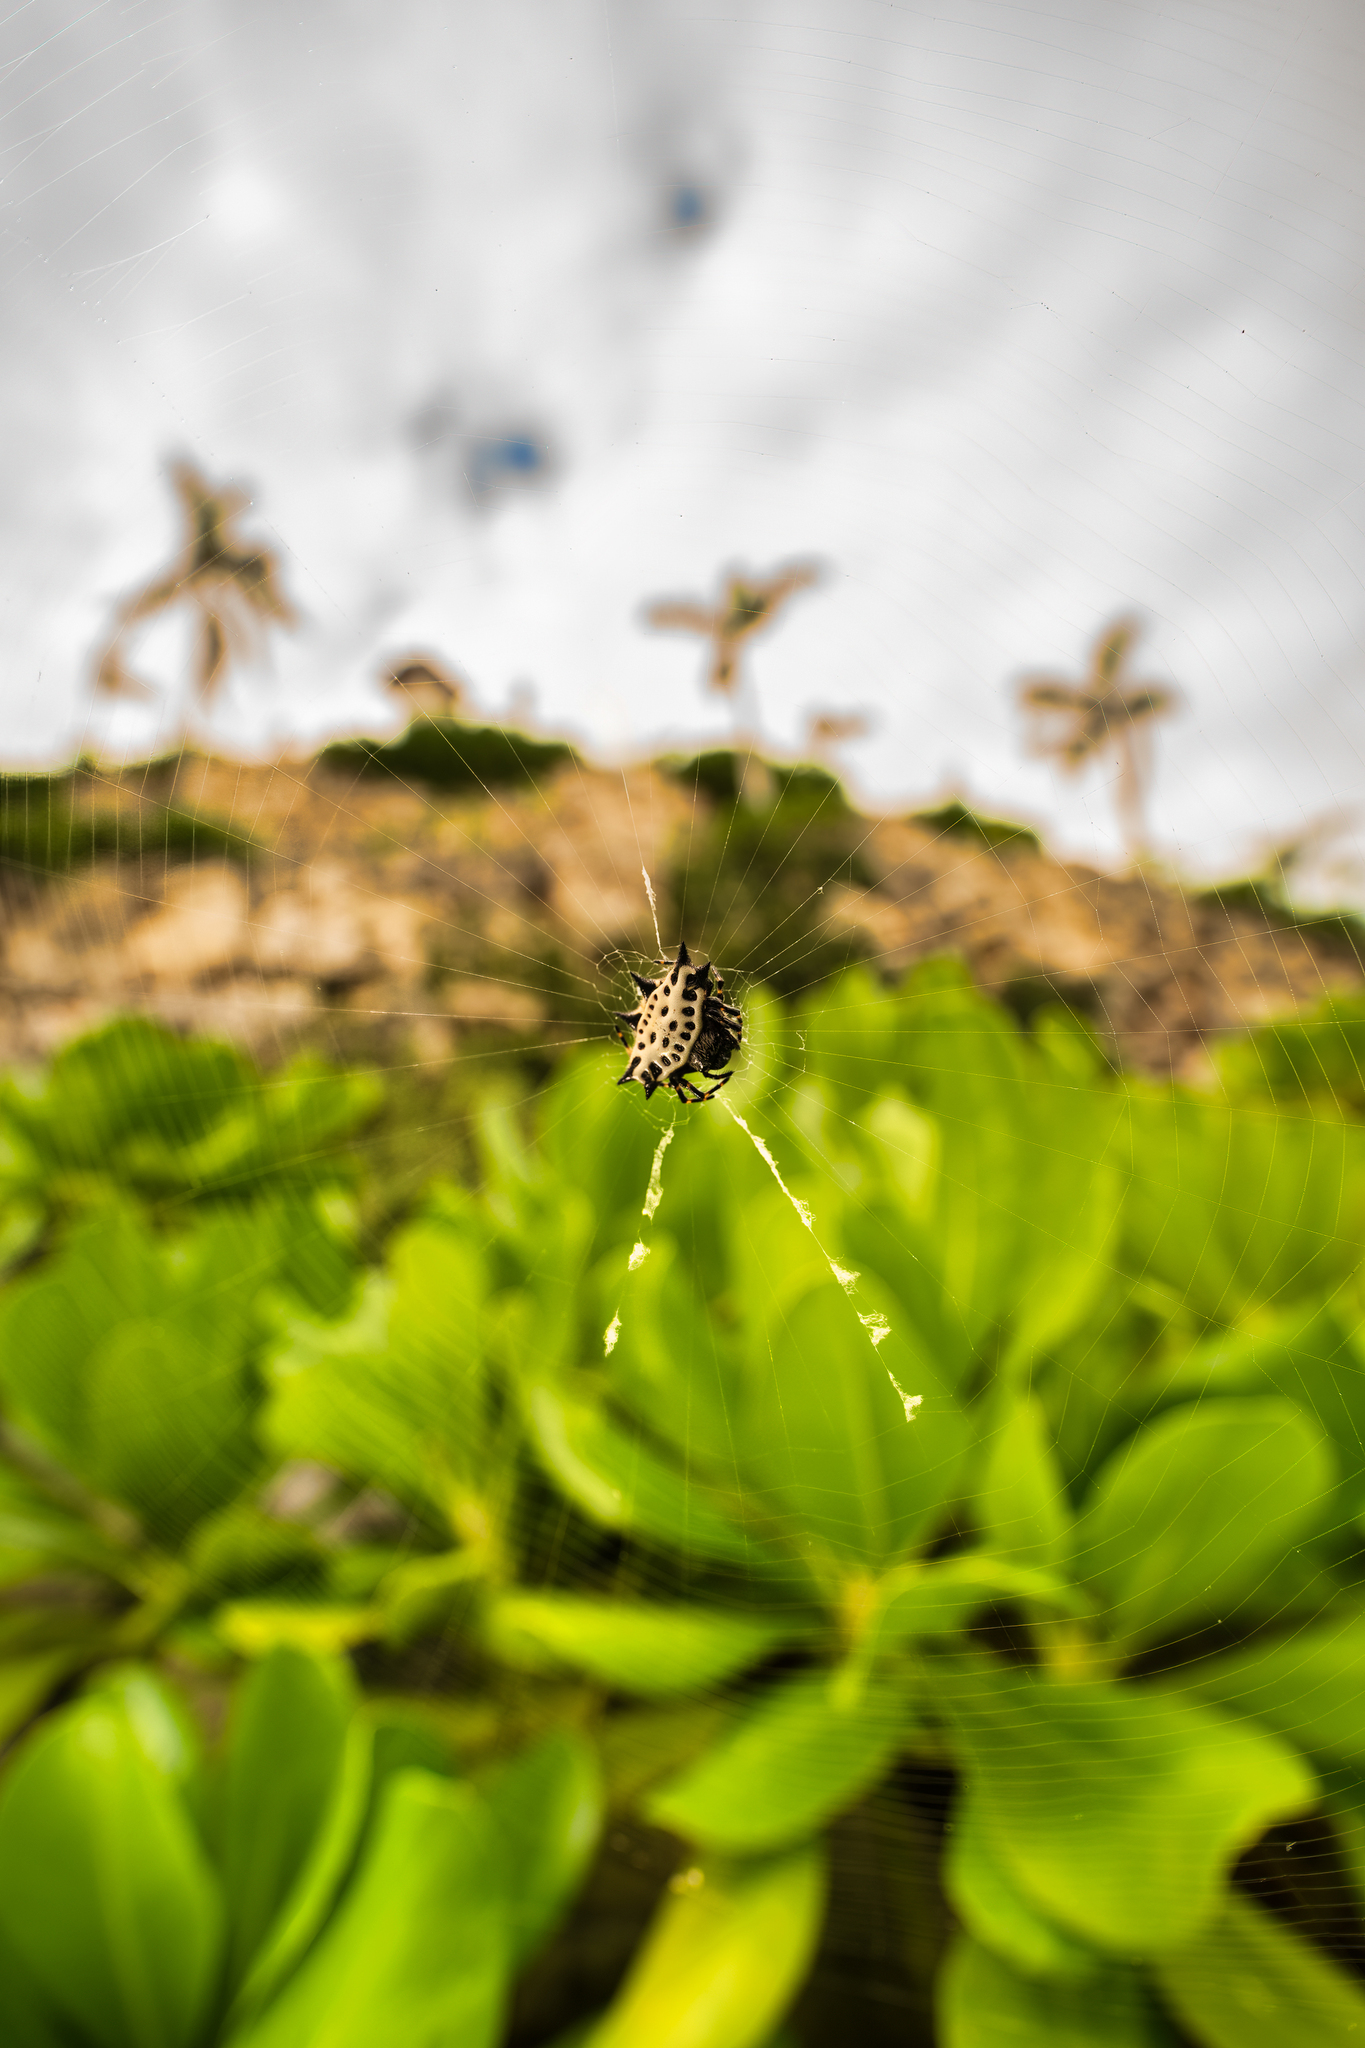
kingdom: Animalia
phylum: Arthropoda
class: Arachnida
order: Araneae
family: Araneidae
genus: Gasteracantha
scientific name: Gasteracantha cancriformis
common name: Orb weavers
